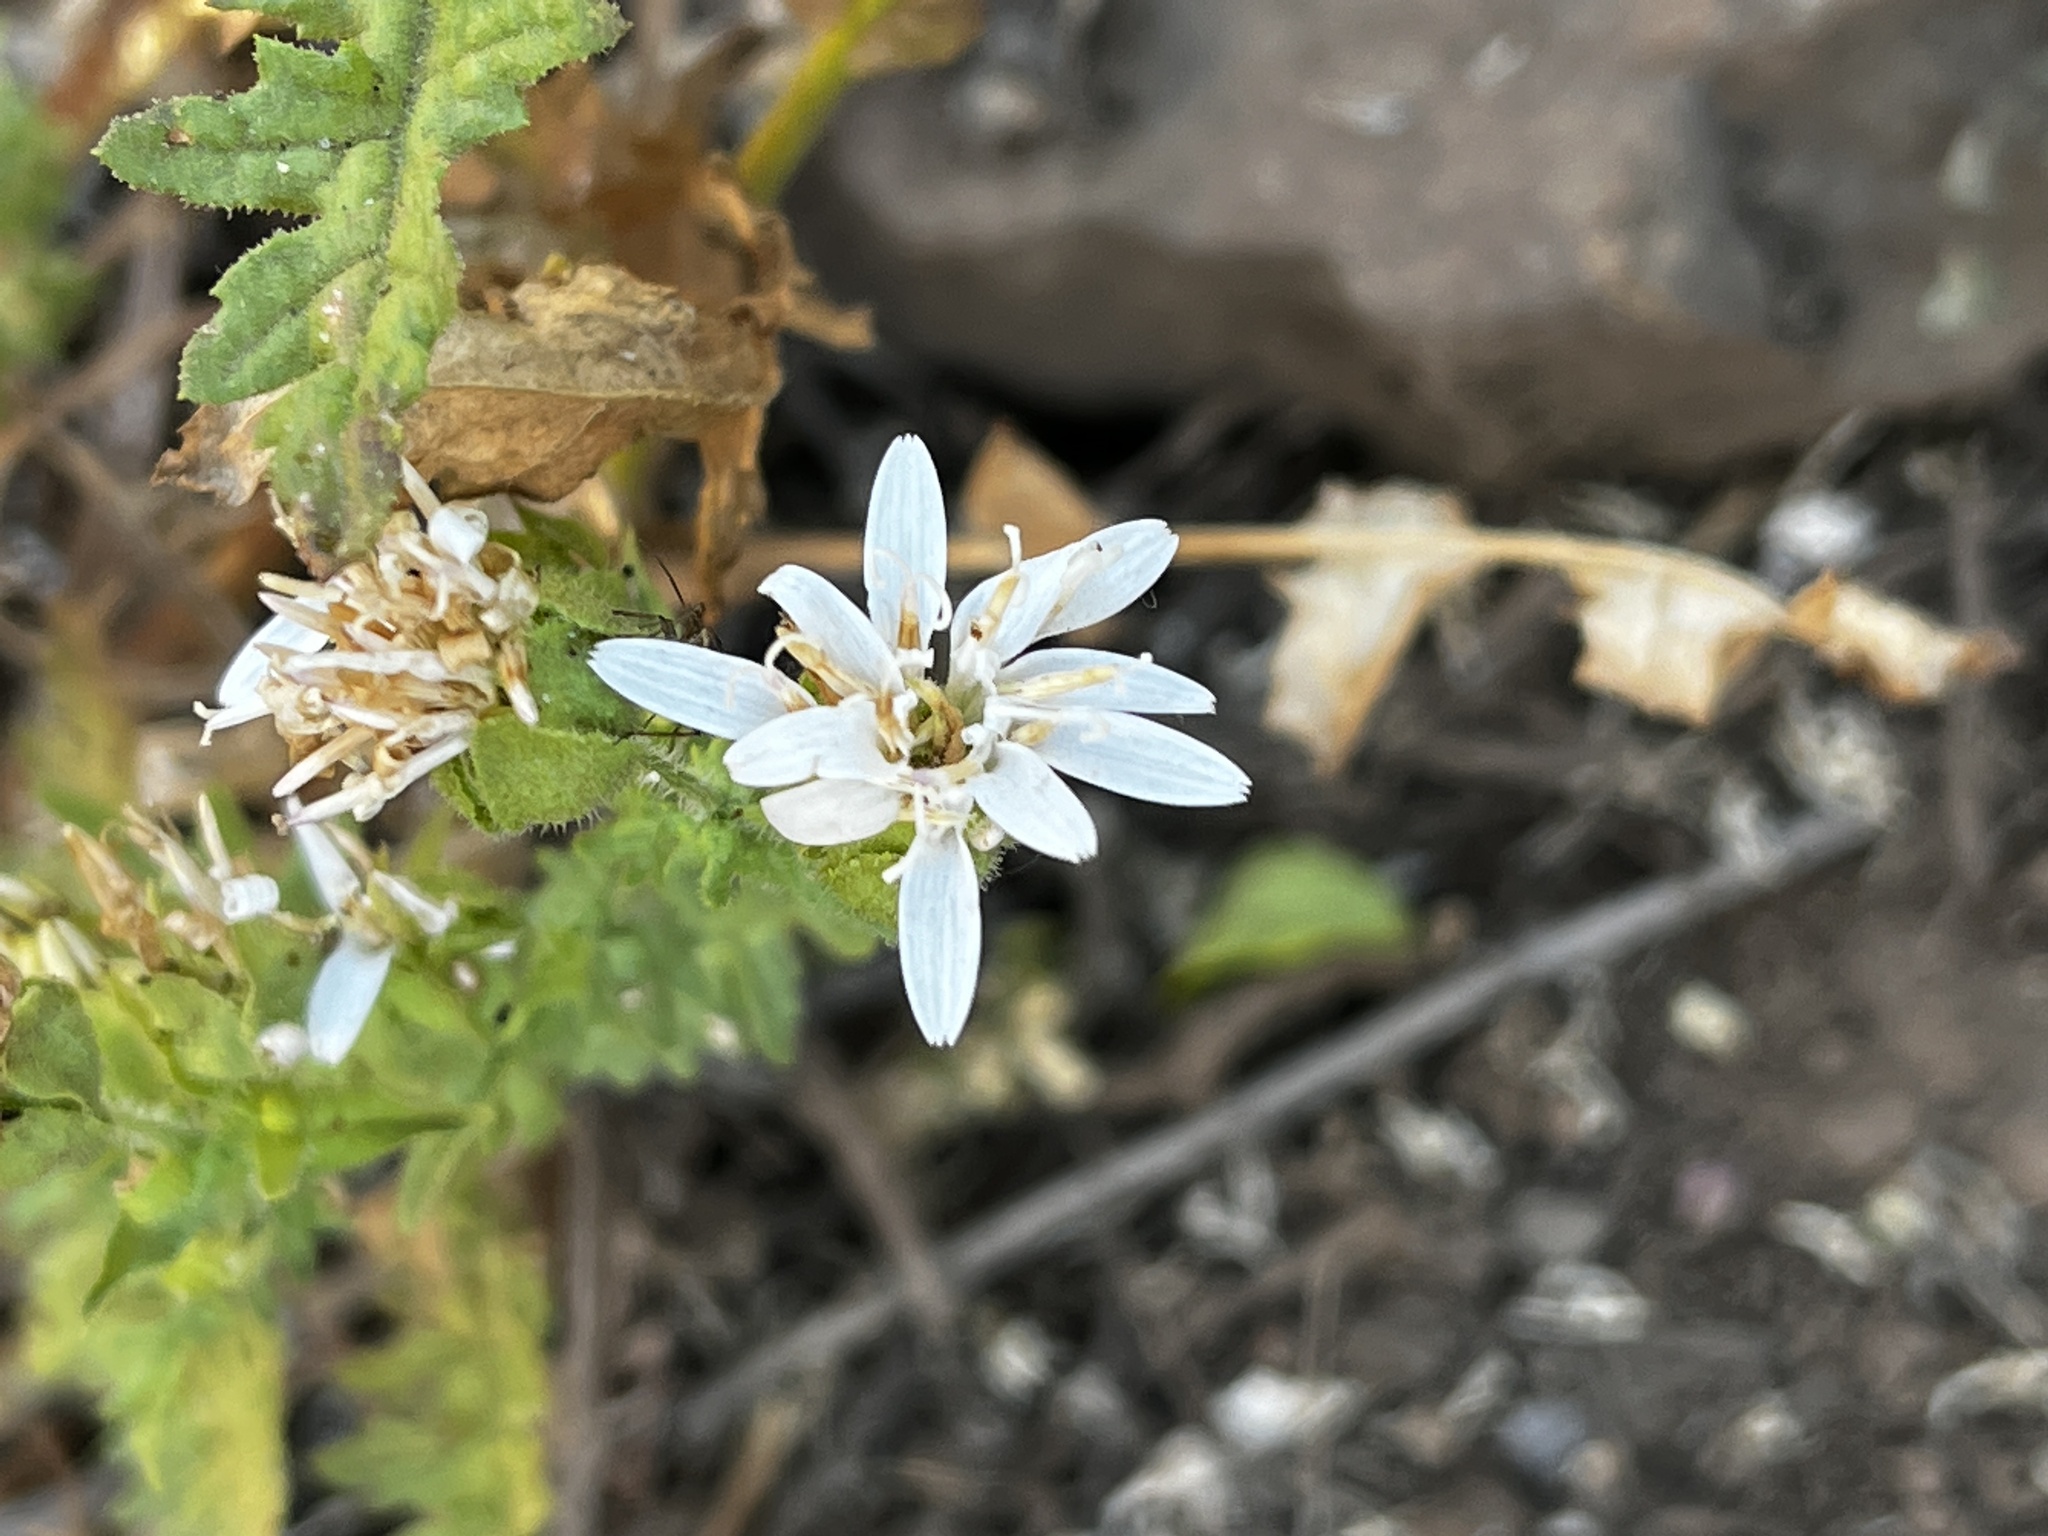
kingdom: Plantae
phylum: Tracheophyta
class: Magnoliopsida
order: Asterales
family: Asteraceae
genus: Moscharia
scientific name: Moscharia pinnatifida
